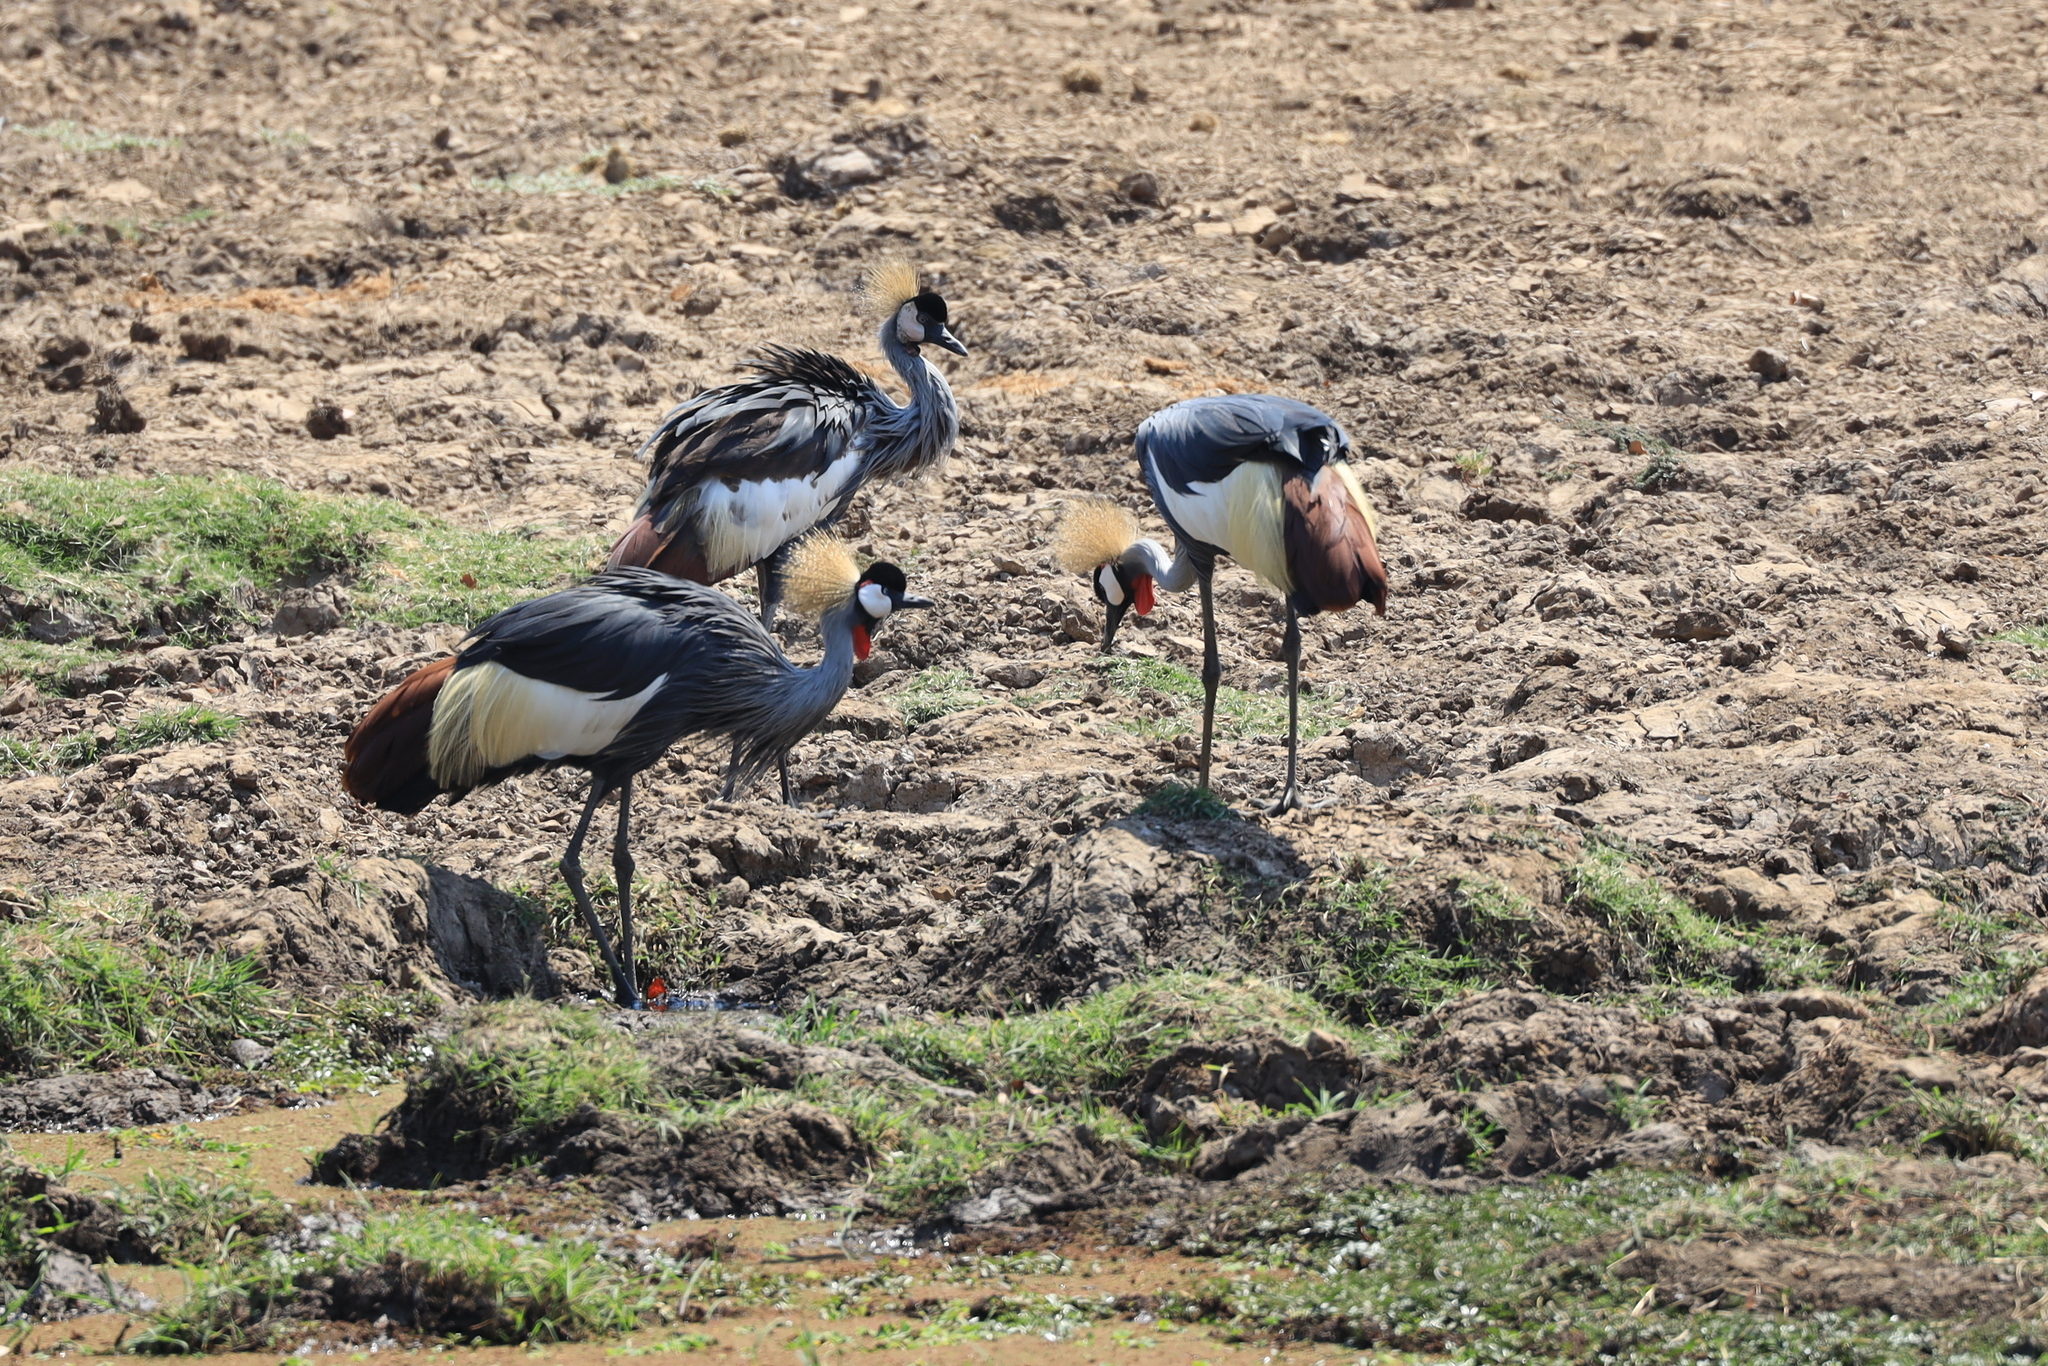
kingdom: Animalia
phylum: Chordata
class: Aves
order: Gruiformes
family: Gruidae
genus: Balearica
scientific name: Balearica regulorum
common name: Grey crowned crane
